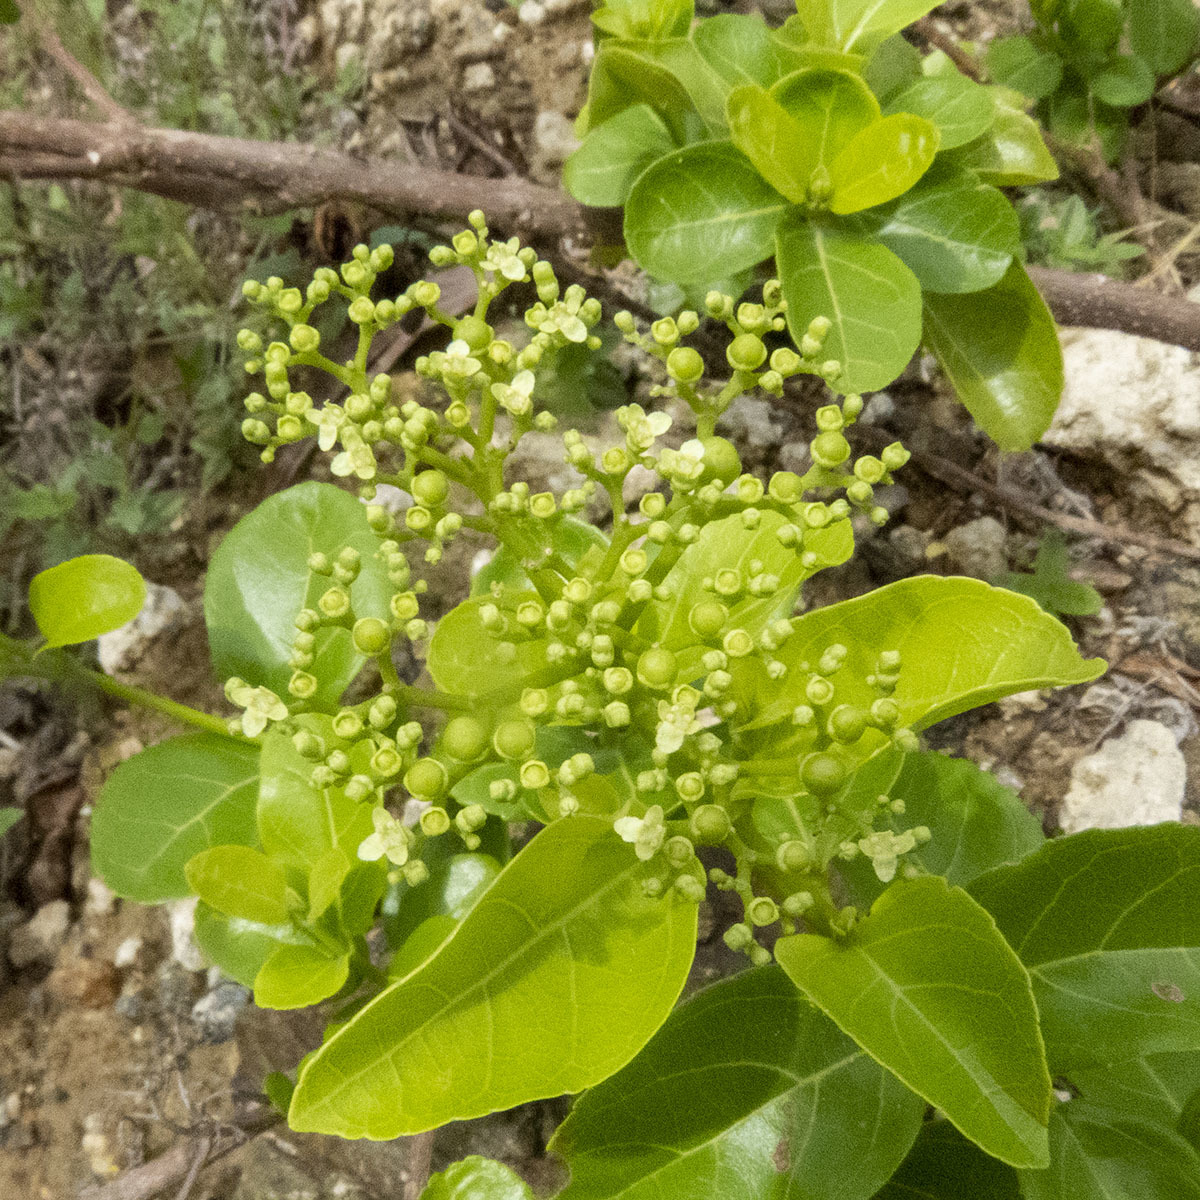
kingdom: Plantae
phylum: Tracheophyta
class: Magnoliopsida
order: Lamiales
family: Lamiaceae
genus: Premna
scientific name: Premna serratifolia
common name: Bastard guelder
